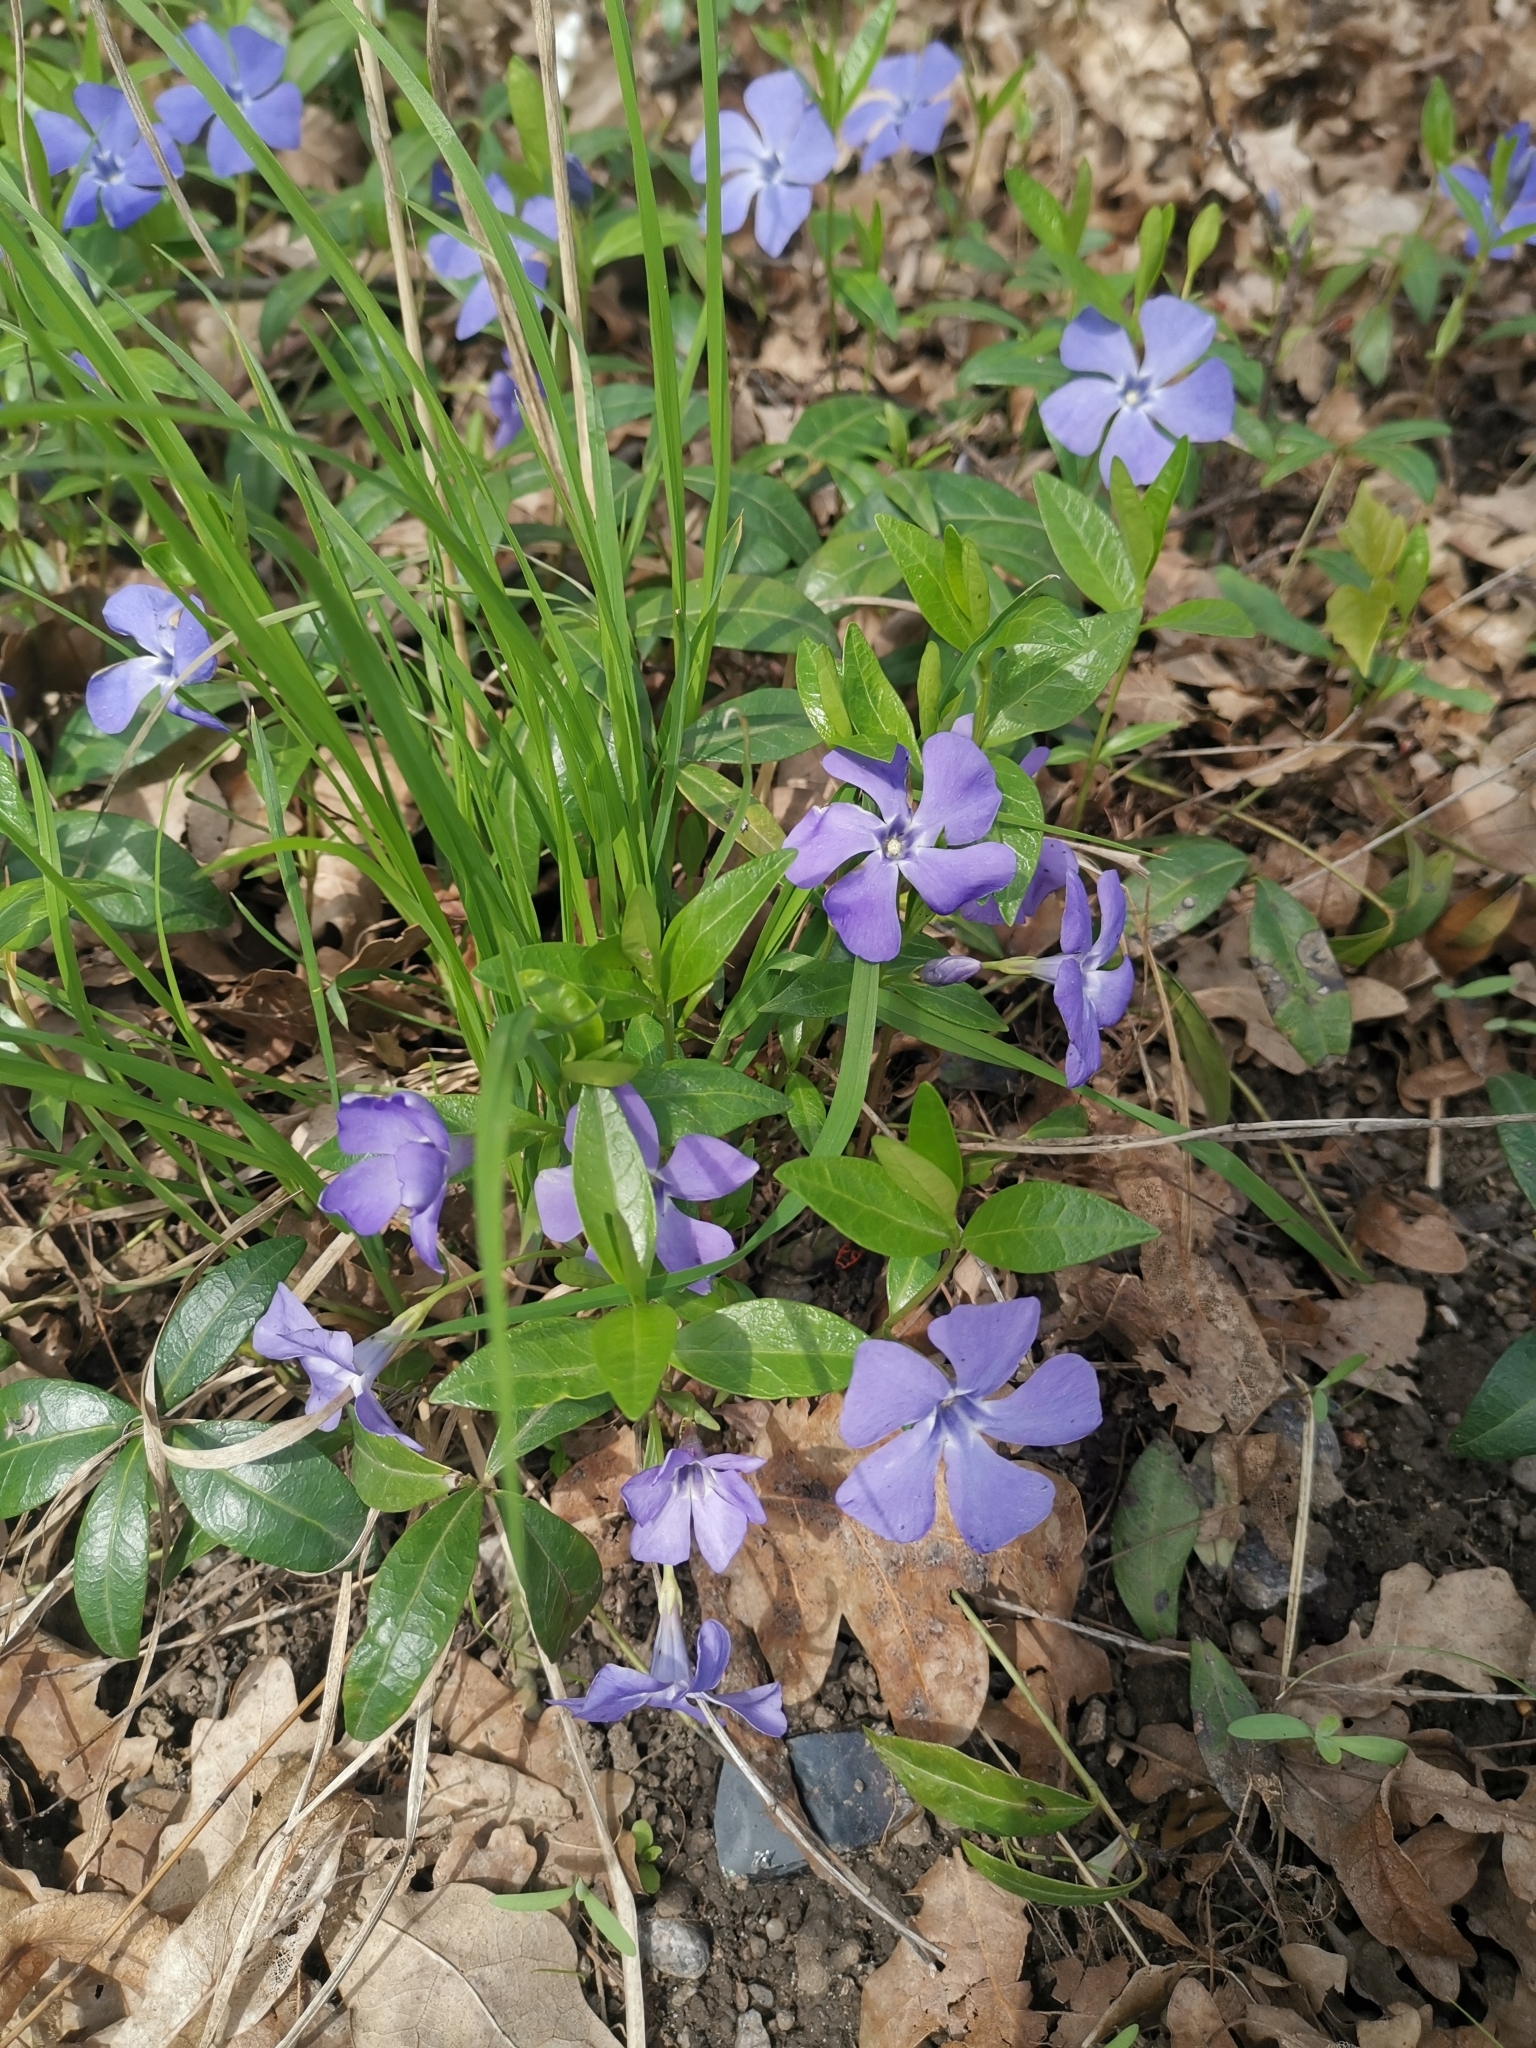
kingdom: Plantae
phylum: Tracheophyta
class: Magnoliopsida
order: Gentianales
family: Apocynaceae
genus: Vinca
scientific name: Vinca minor
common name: Lesser periwinkle
